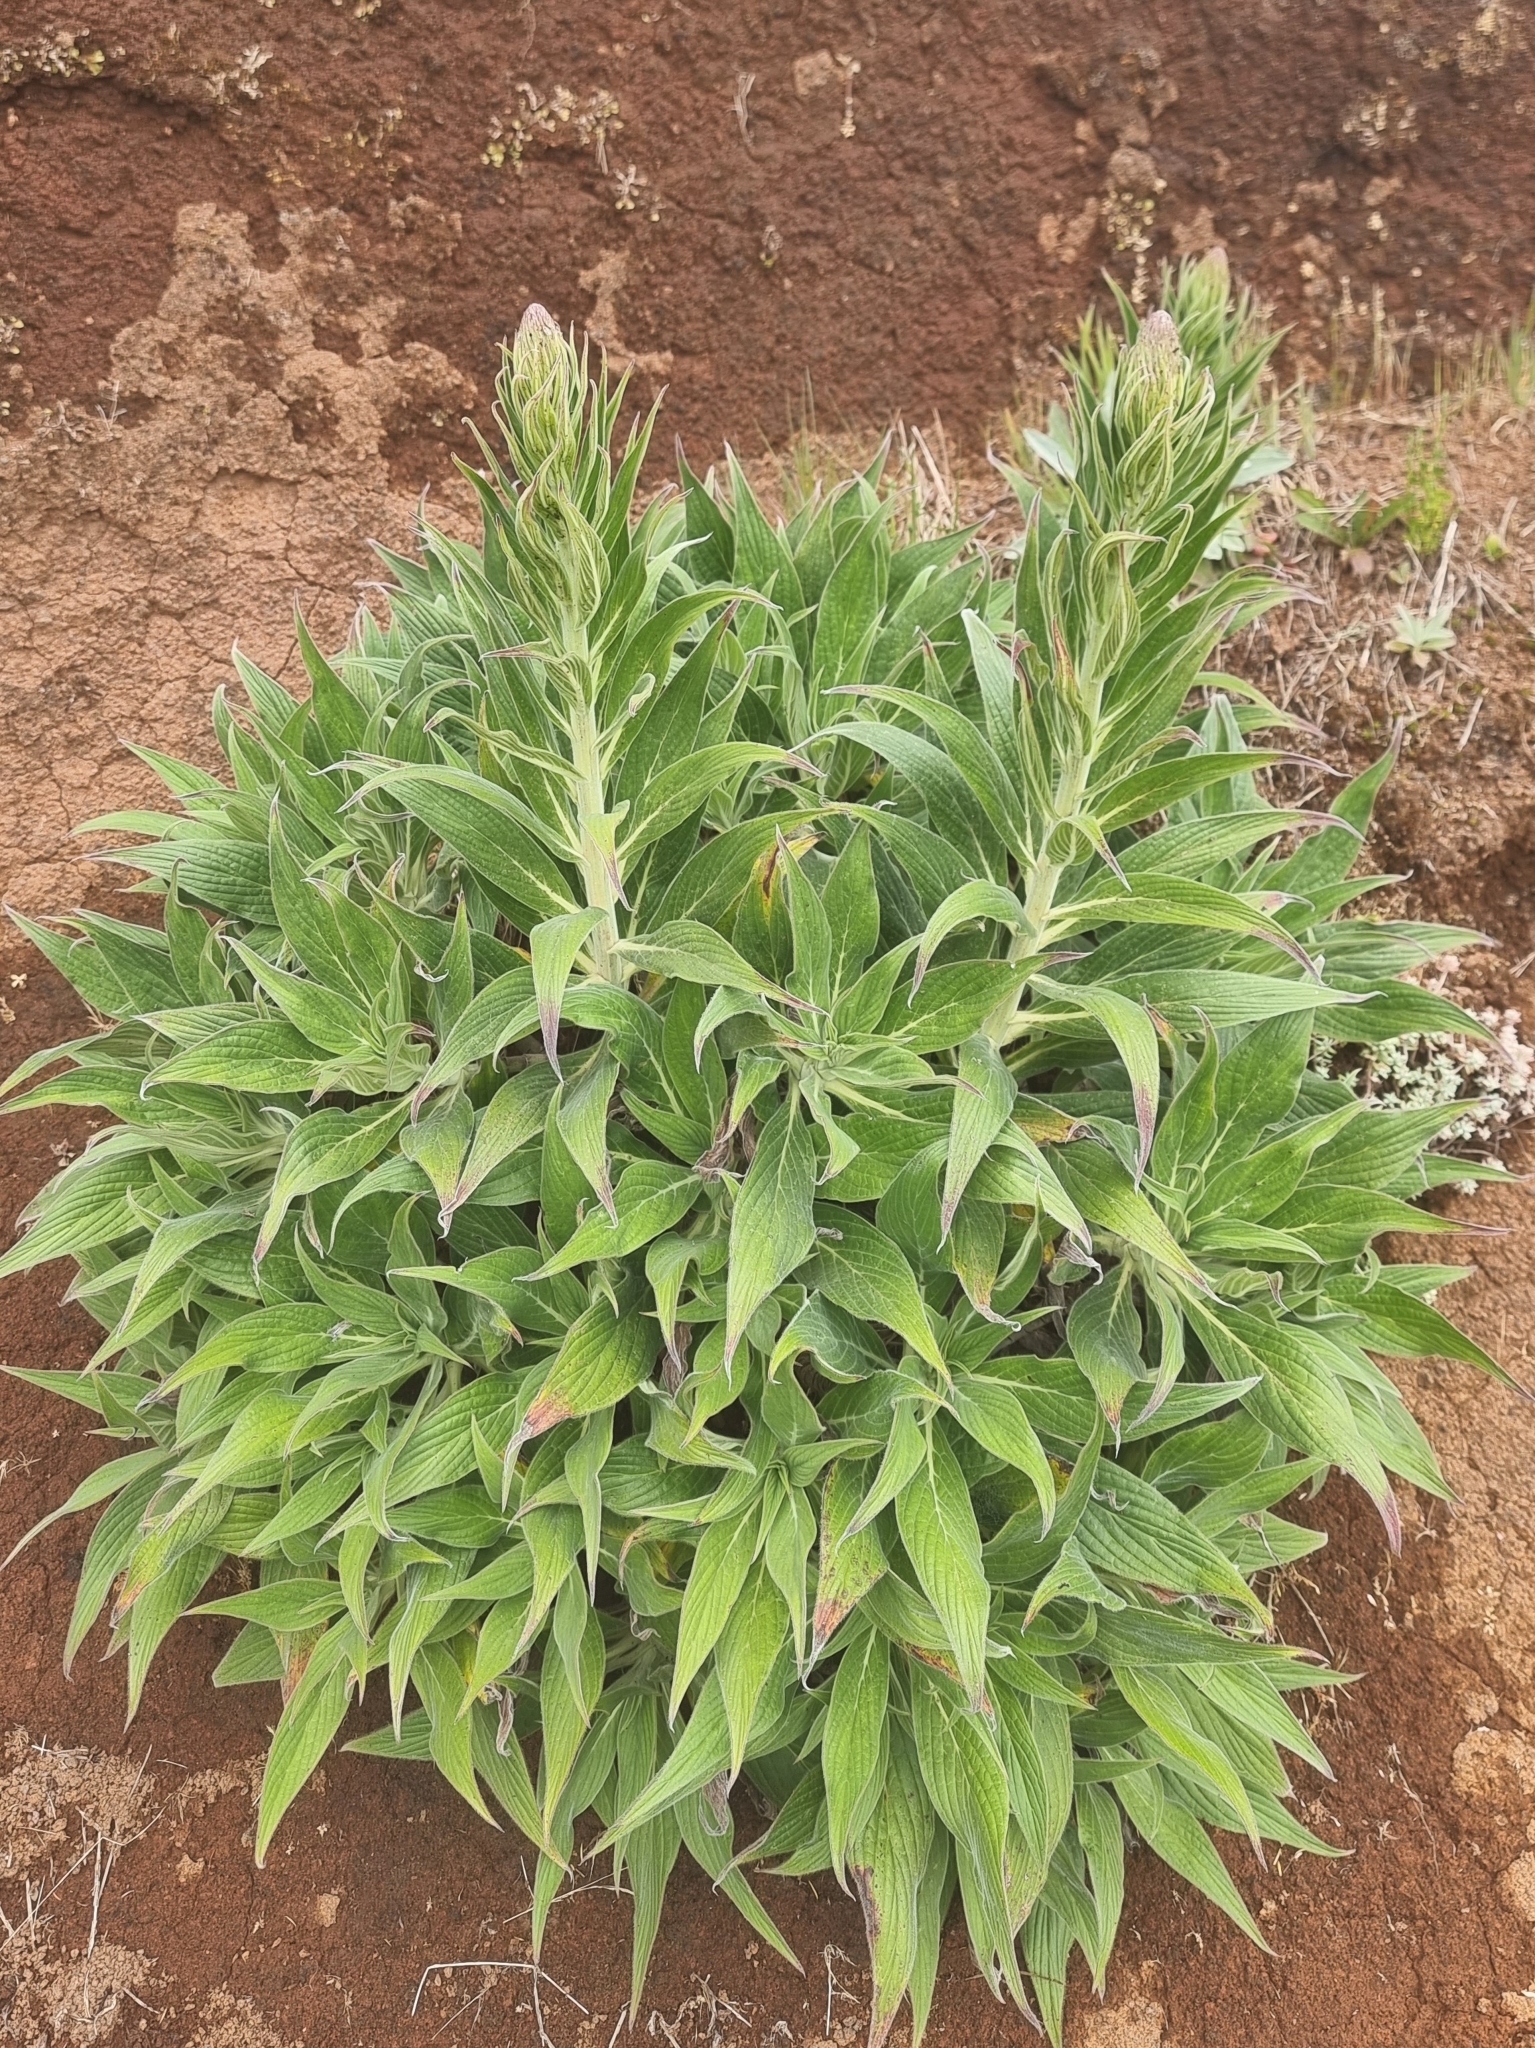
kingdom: Plantae
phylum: Tracheophyta
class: Magnoliopsida
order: Boraginales
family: Boraginaceae
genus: Echium
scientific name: Echium candicans
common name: Pride of madeira
